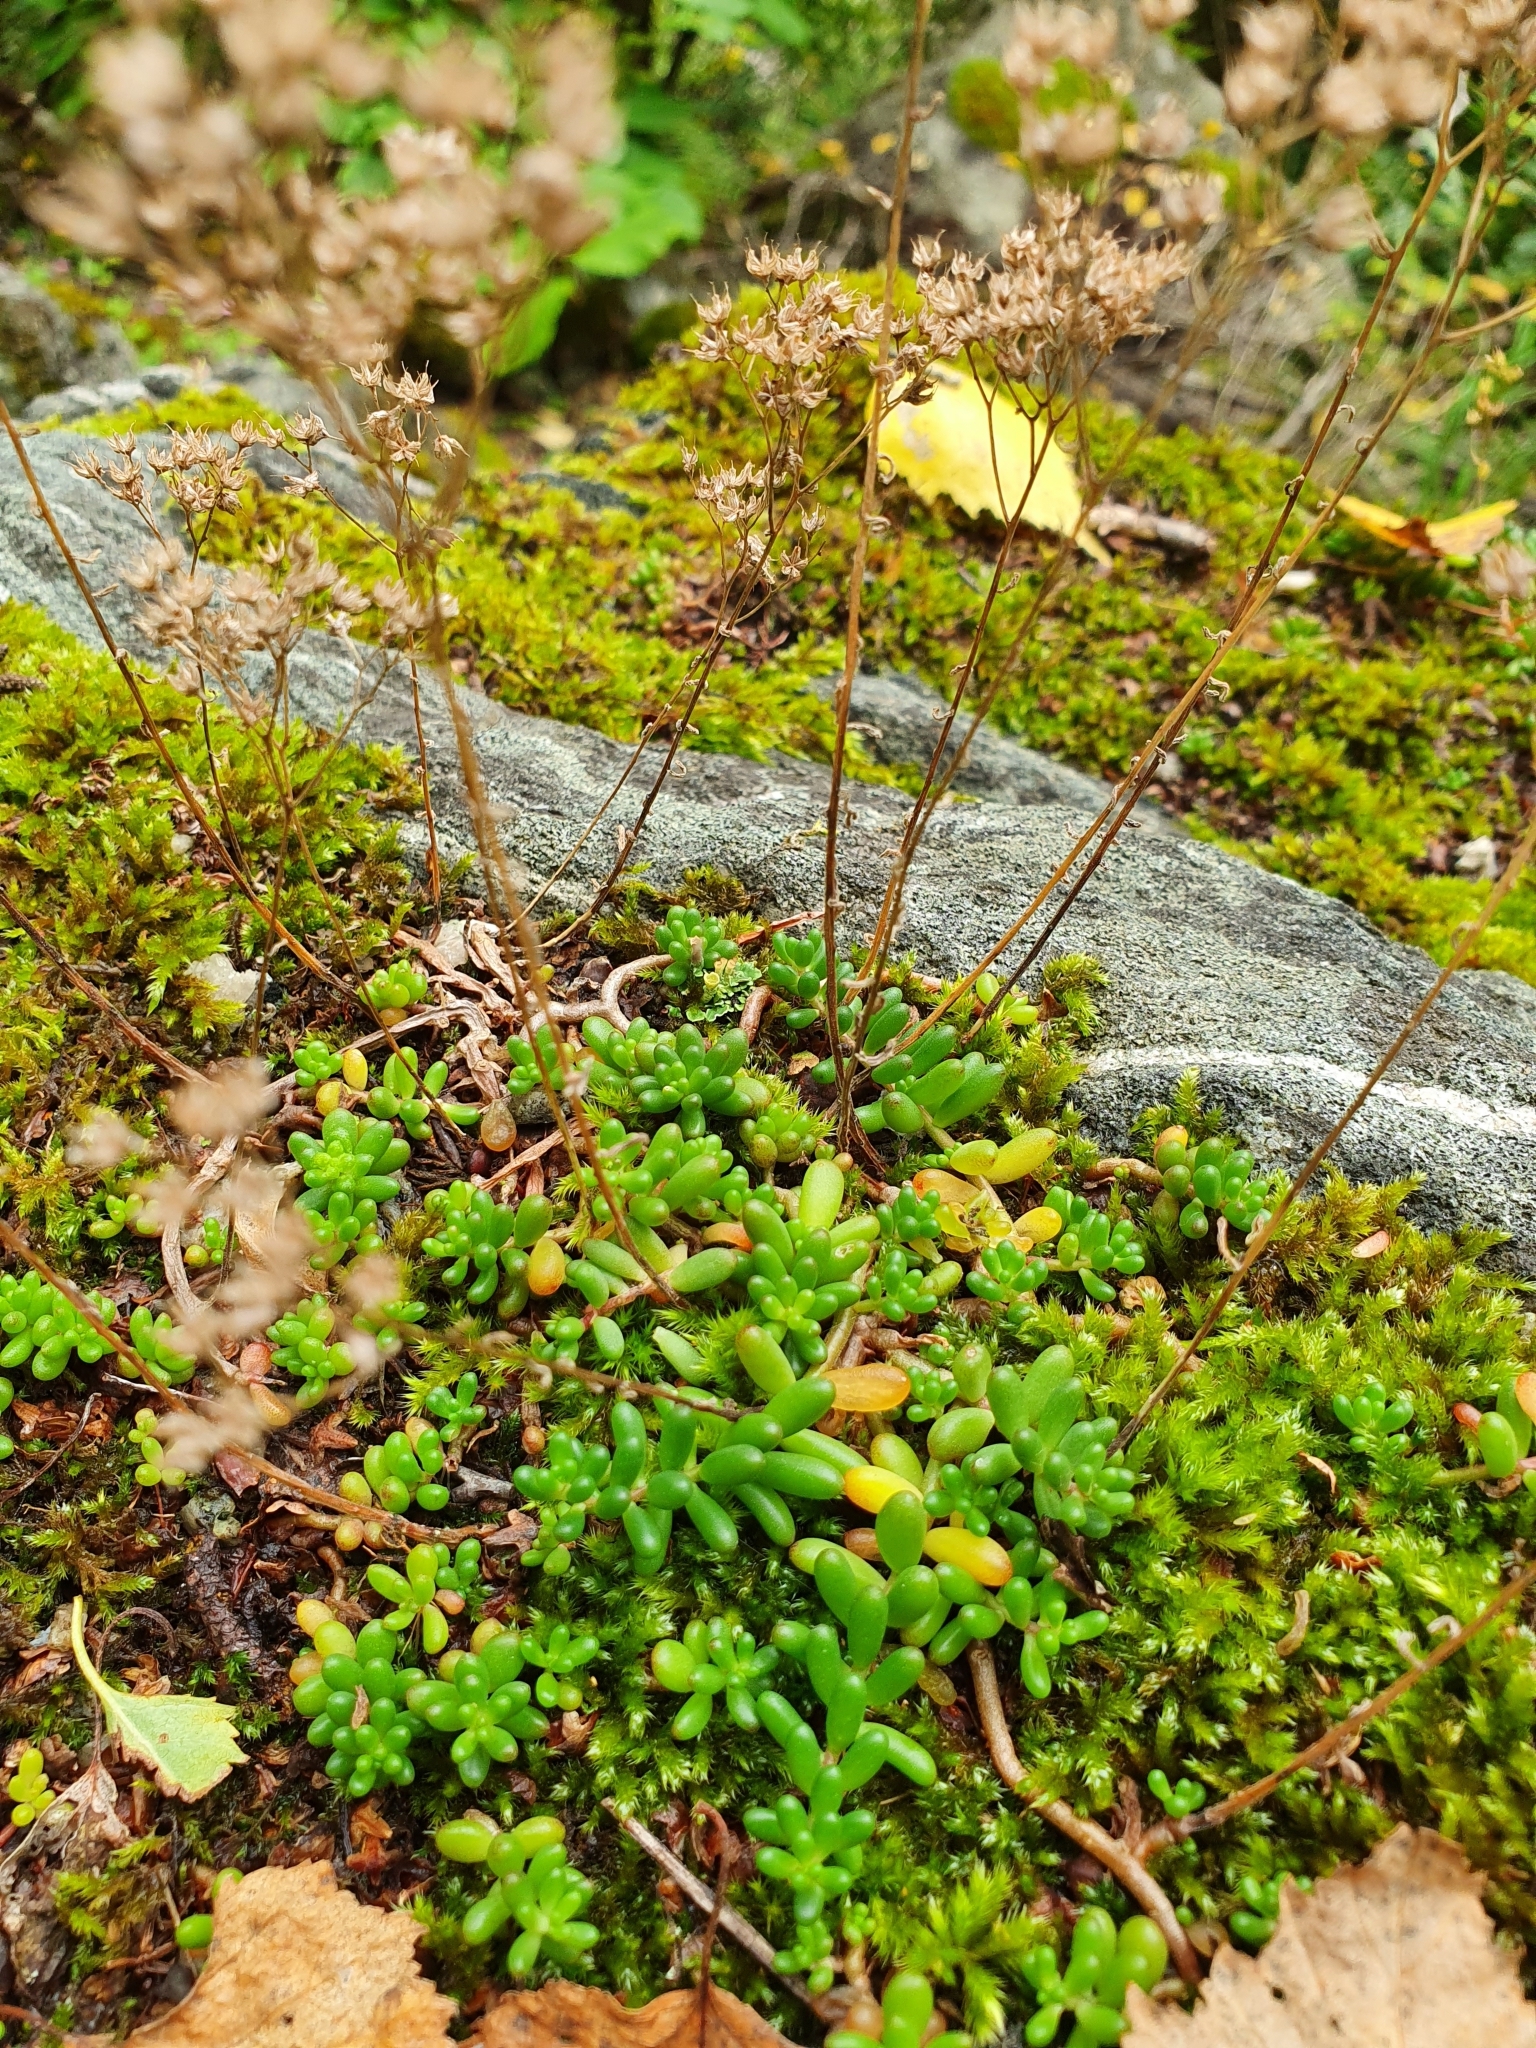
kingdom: Plantae
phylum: Tracheophyta
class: Magnoliopsida
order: Saxifragales
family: Crassulaceae
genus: Sedum
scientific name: Sedum album
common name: White stonecrop
